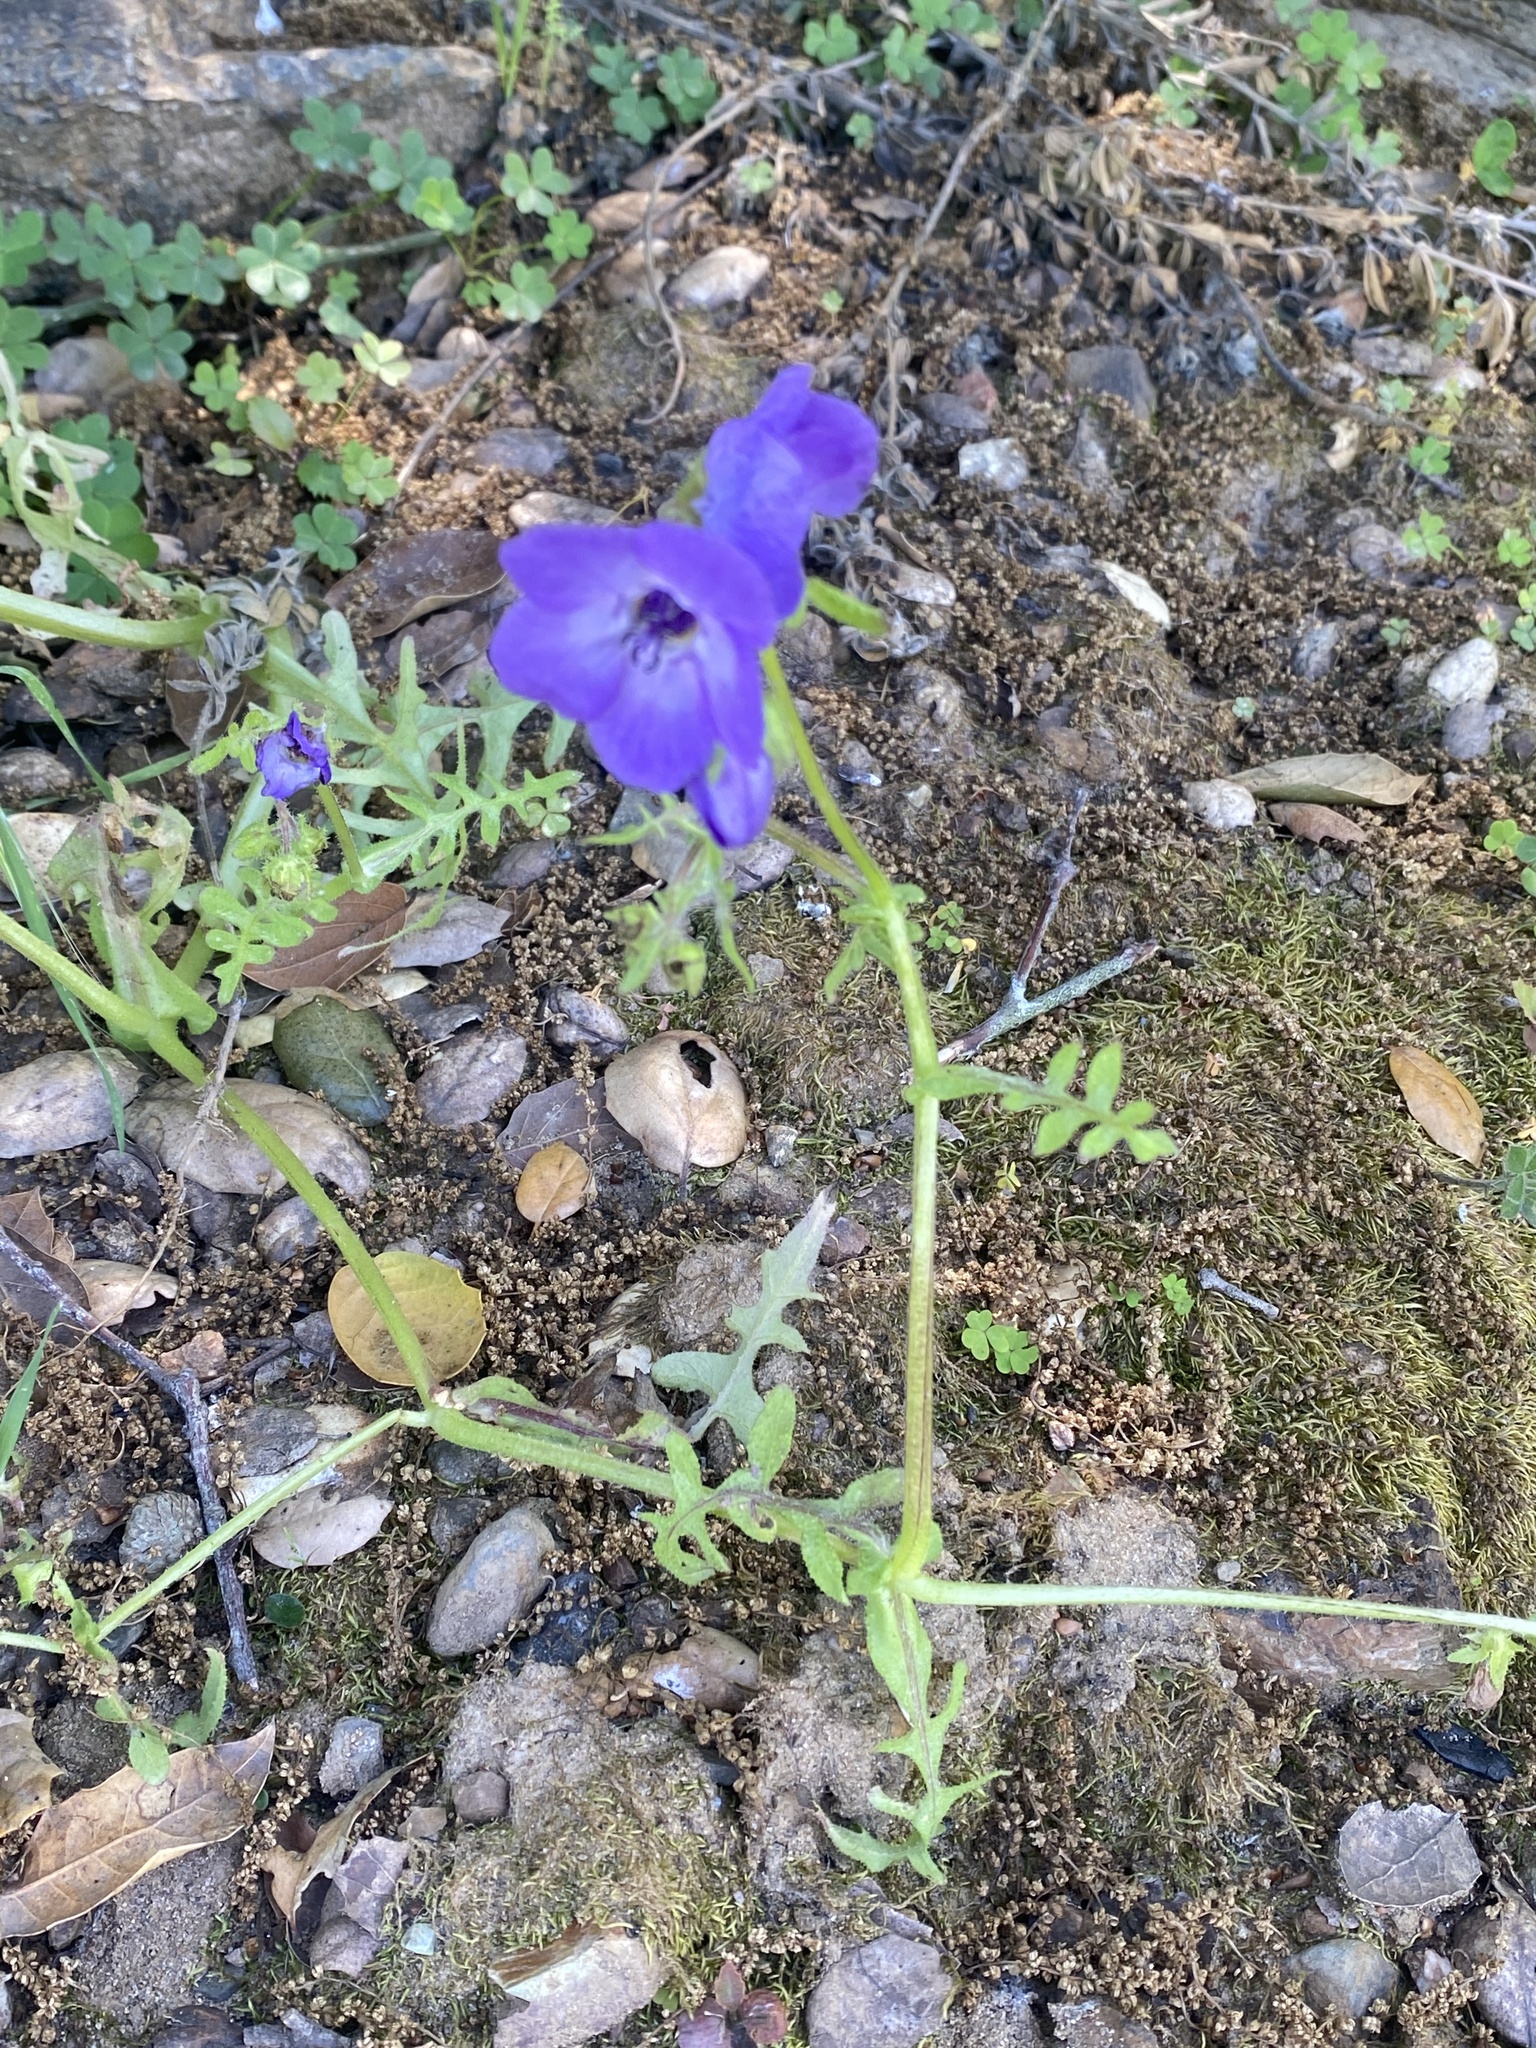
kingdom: Plantae
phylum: Tracheophyta
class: Magnoliopsida
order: Boraginales
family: Hydrophyllaceae
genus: Pholistoma
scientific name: Pholistoma auritum
